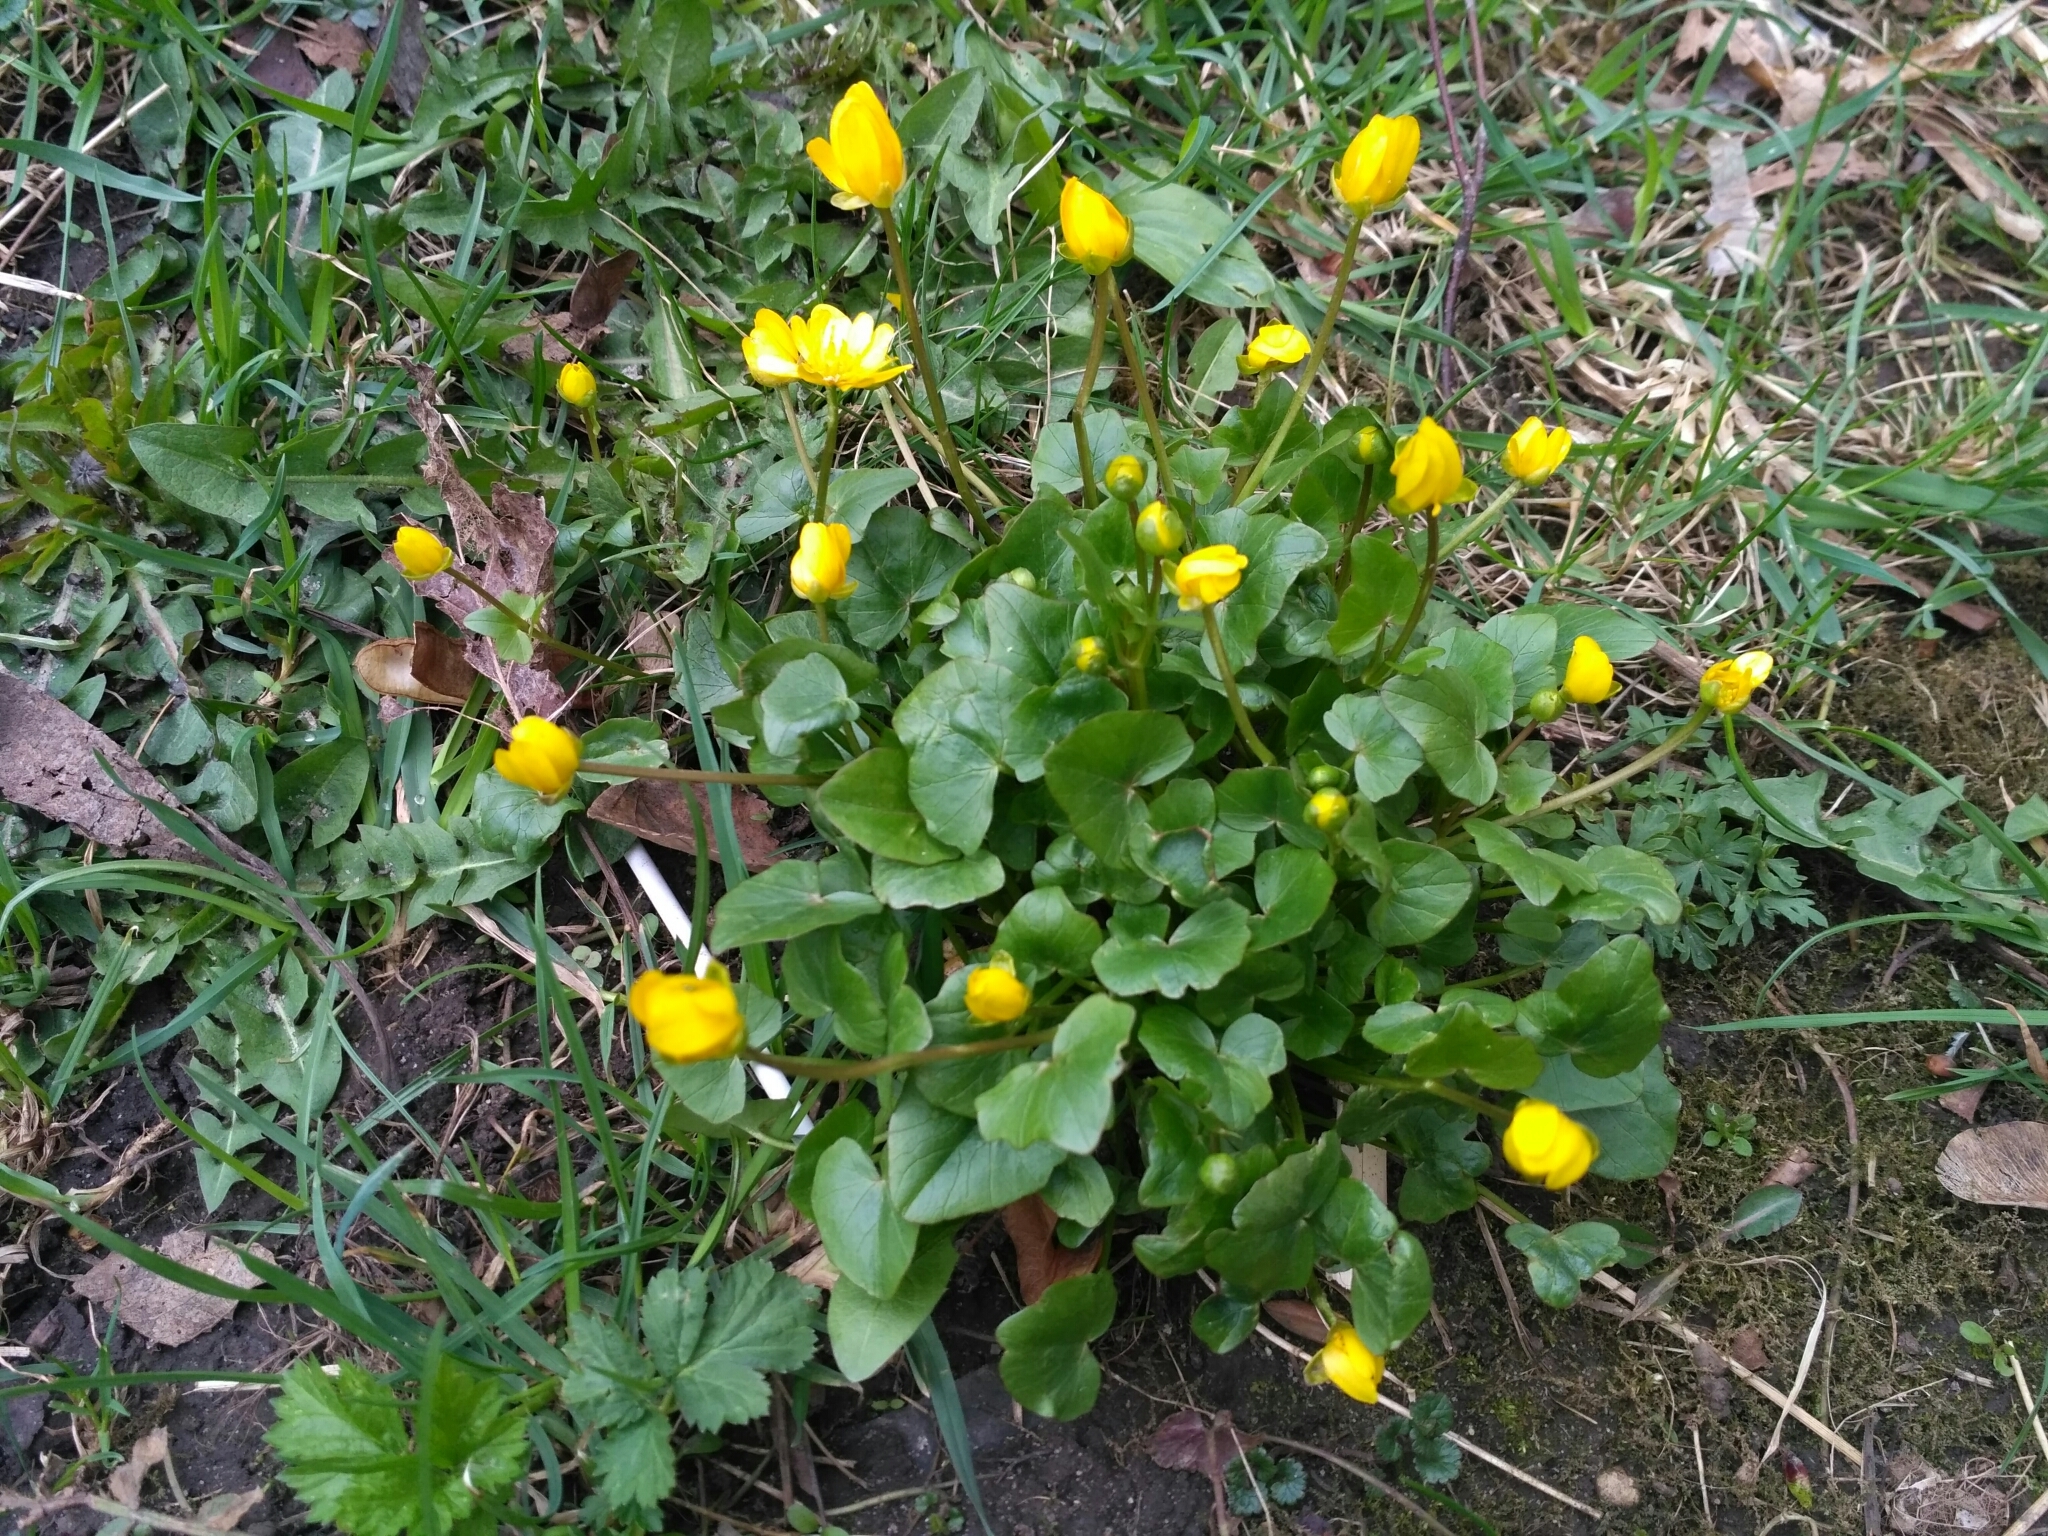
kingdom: Plantae
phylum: Tracheophyta
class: Magnoliopsida
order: Ranunculales
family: Ranunculaceae
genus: Ficaria
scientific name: Ficaria verna
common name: Lesser celandine
